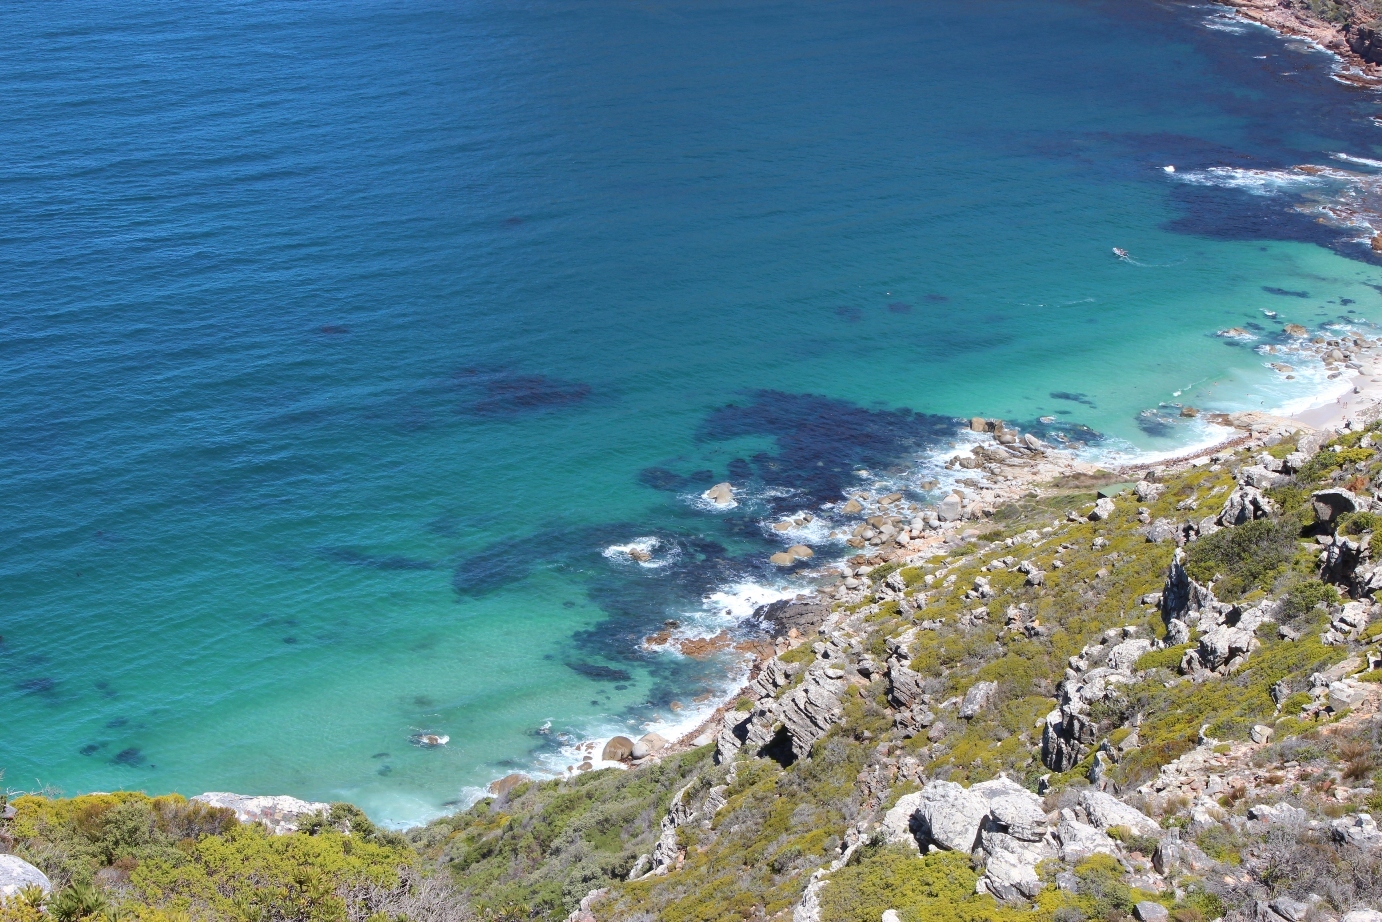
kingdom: Chromista
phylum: Ochrophyta
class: Phaeophyceae
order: Laminariales
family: Lessoniaceae
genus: Ecklonia
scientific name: Ecklonia
